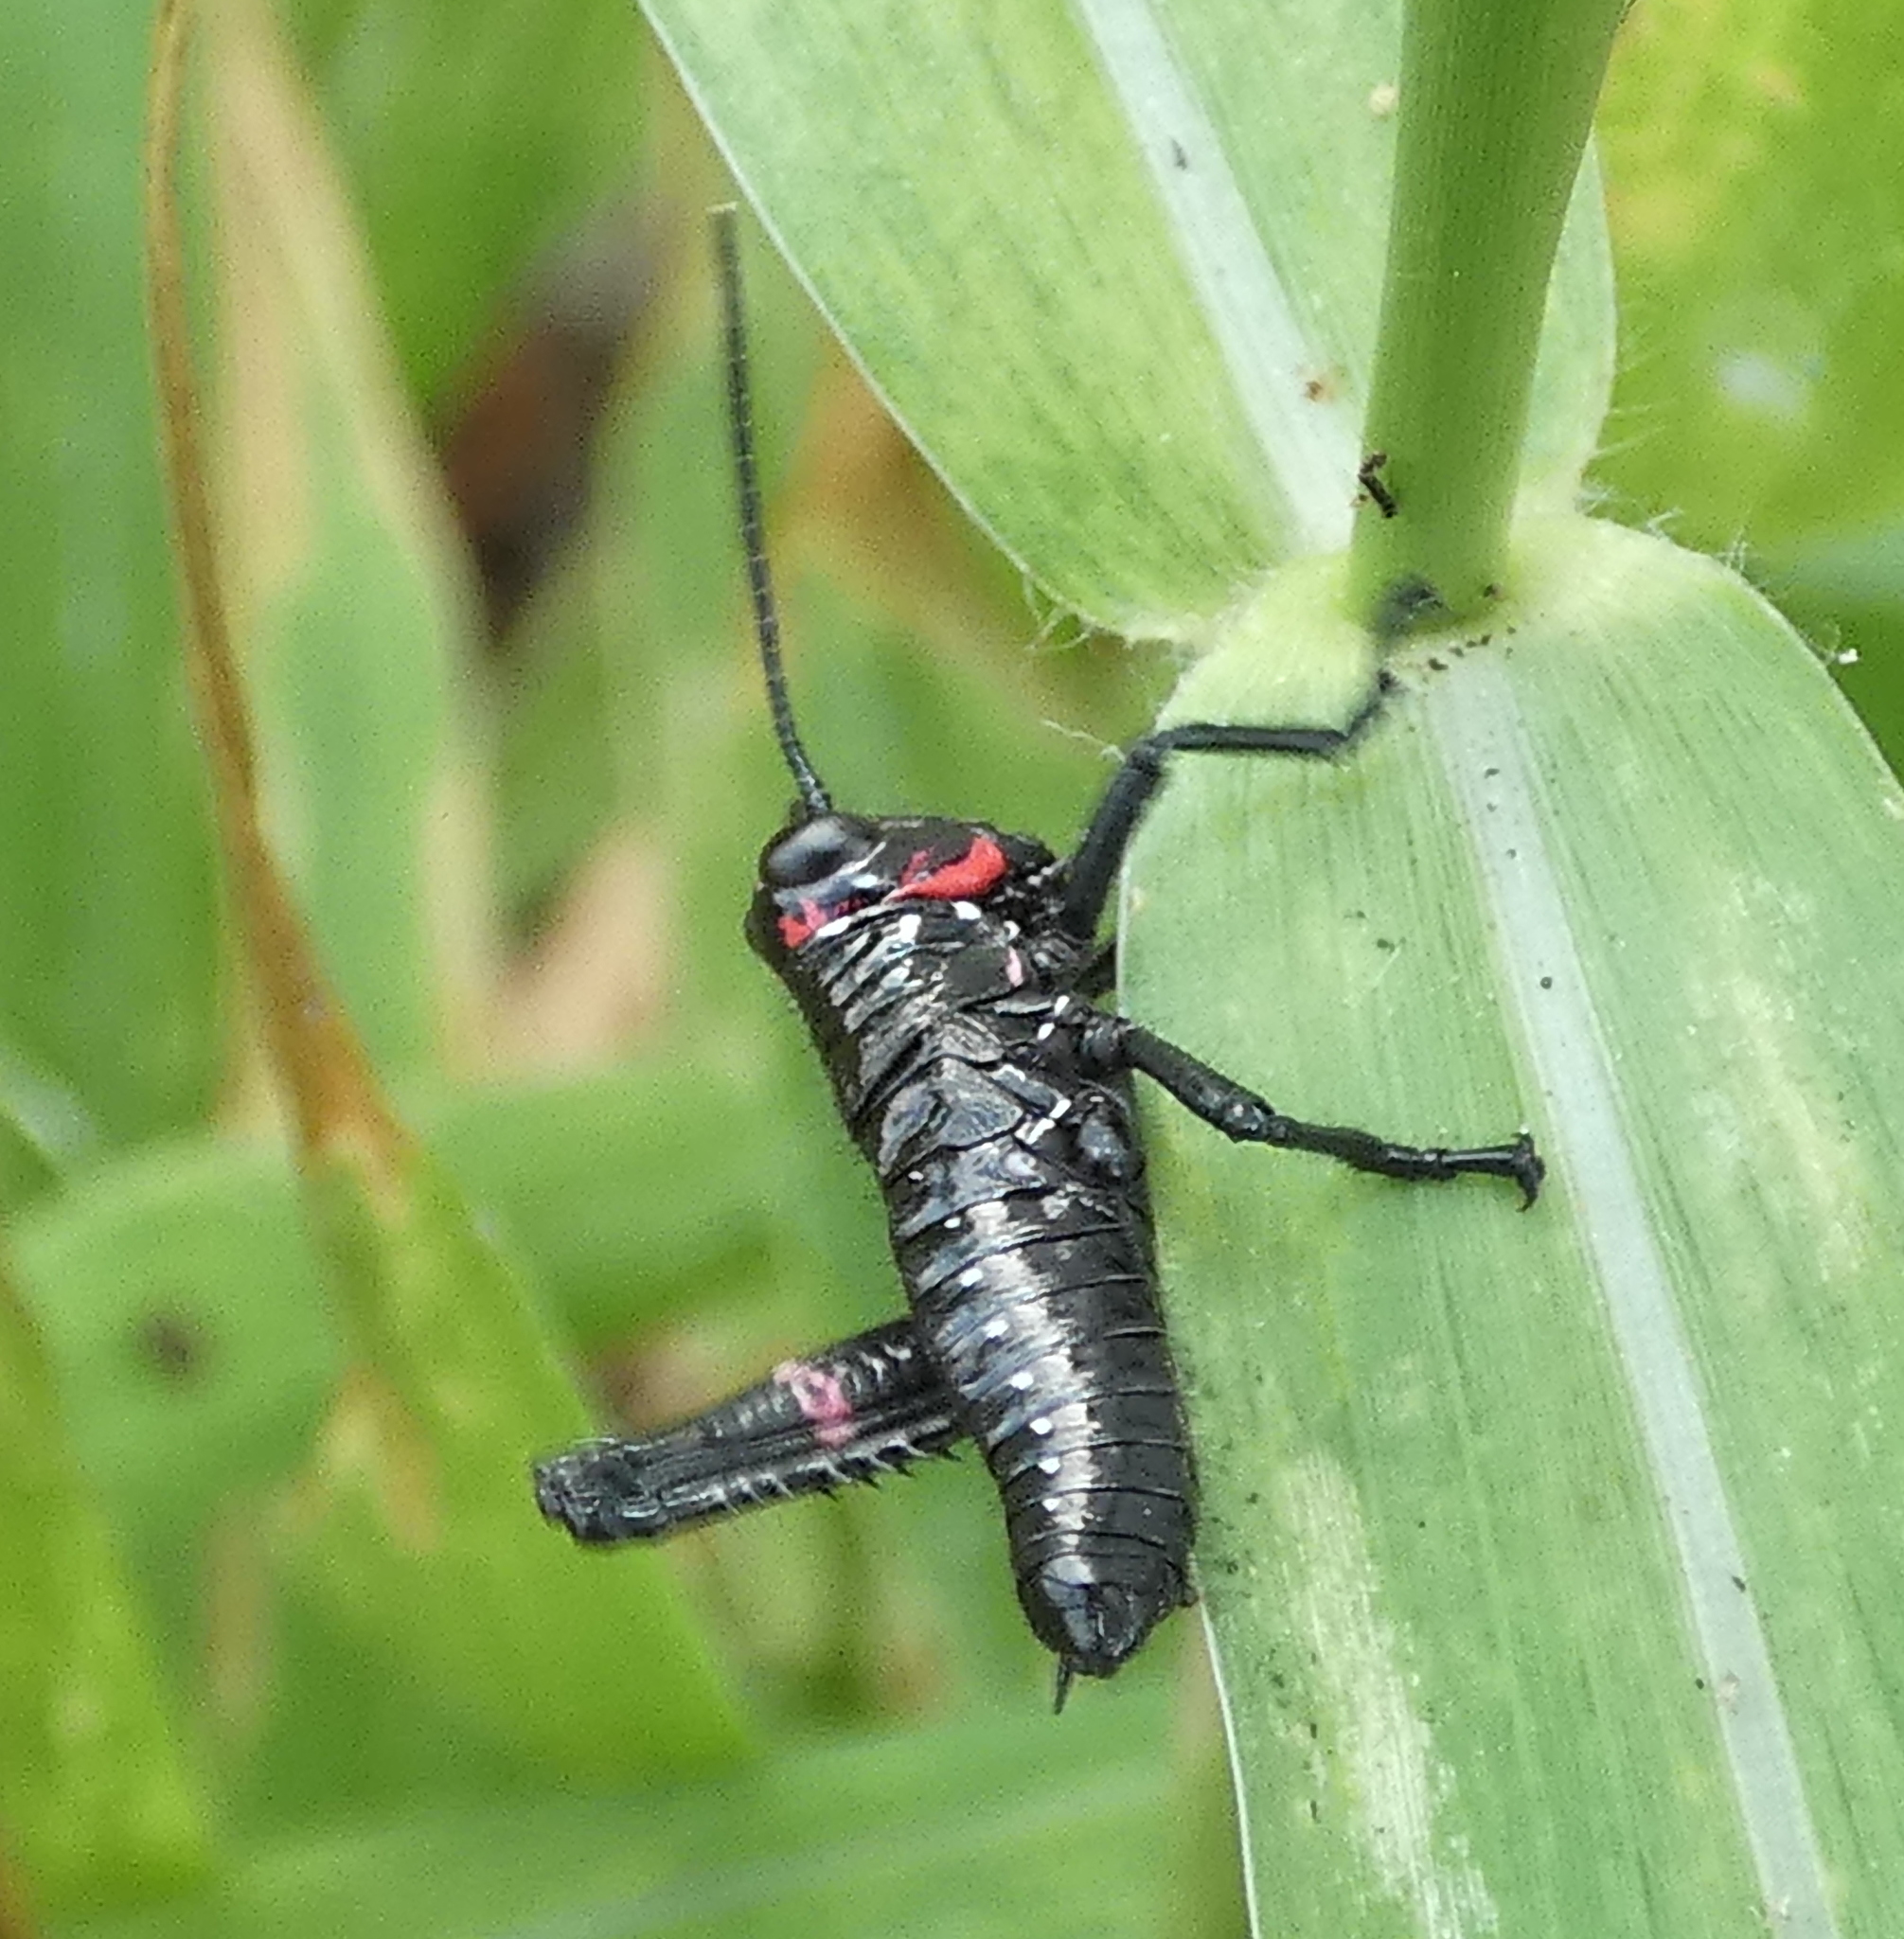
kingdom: Animalia
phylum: Arthropoda
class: Insecta
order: Orthoptera
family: Romaleidae
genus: Chromacris
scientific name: Chromacris speciosa
